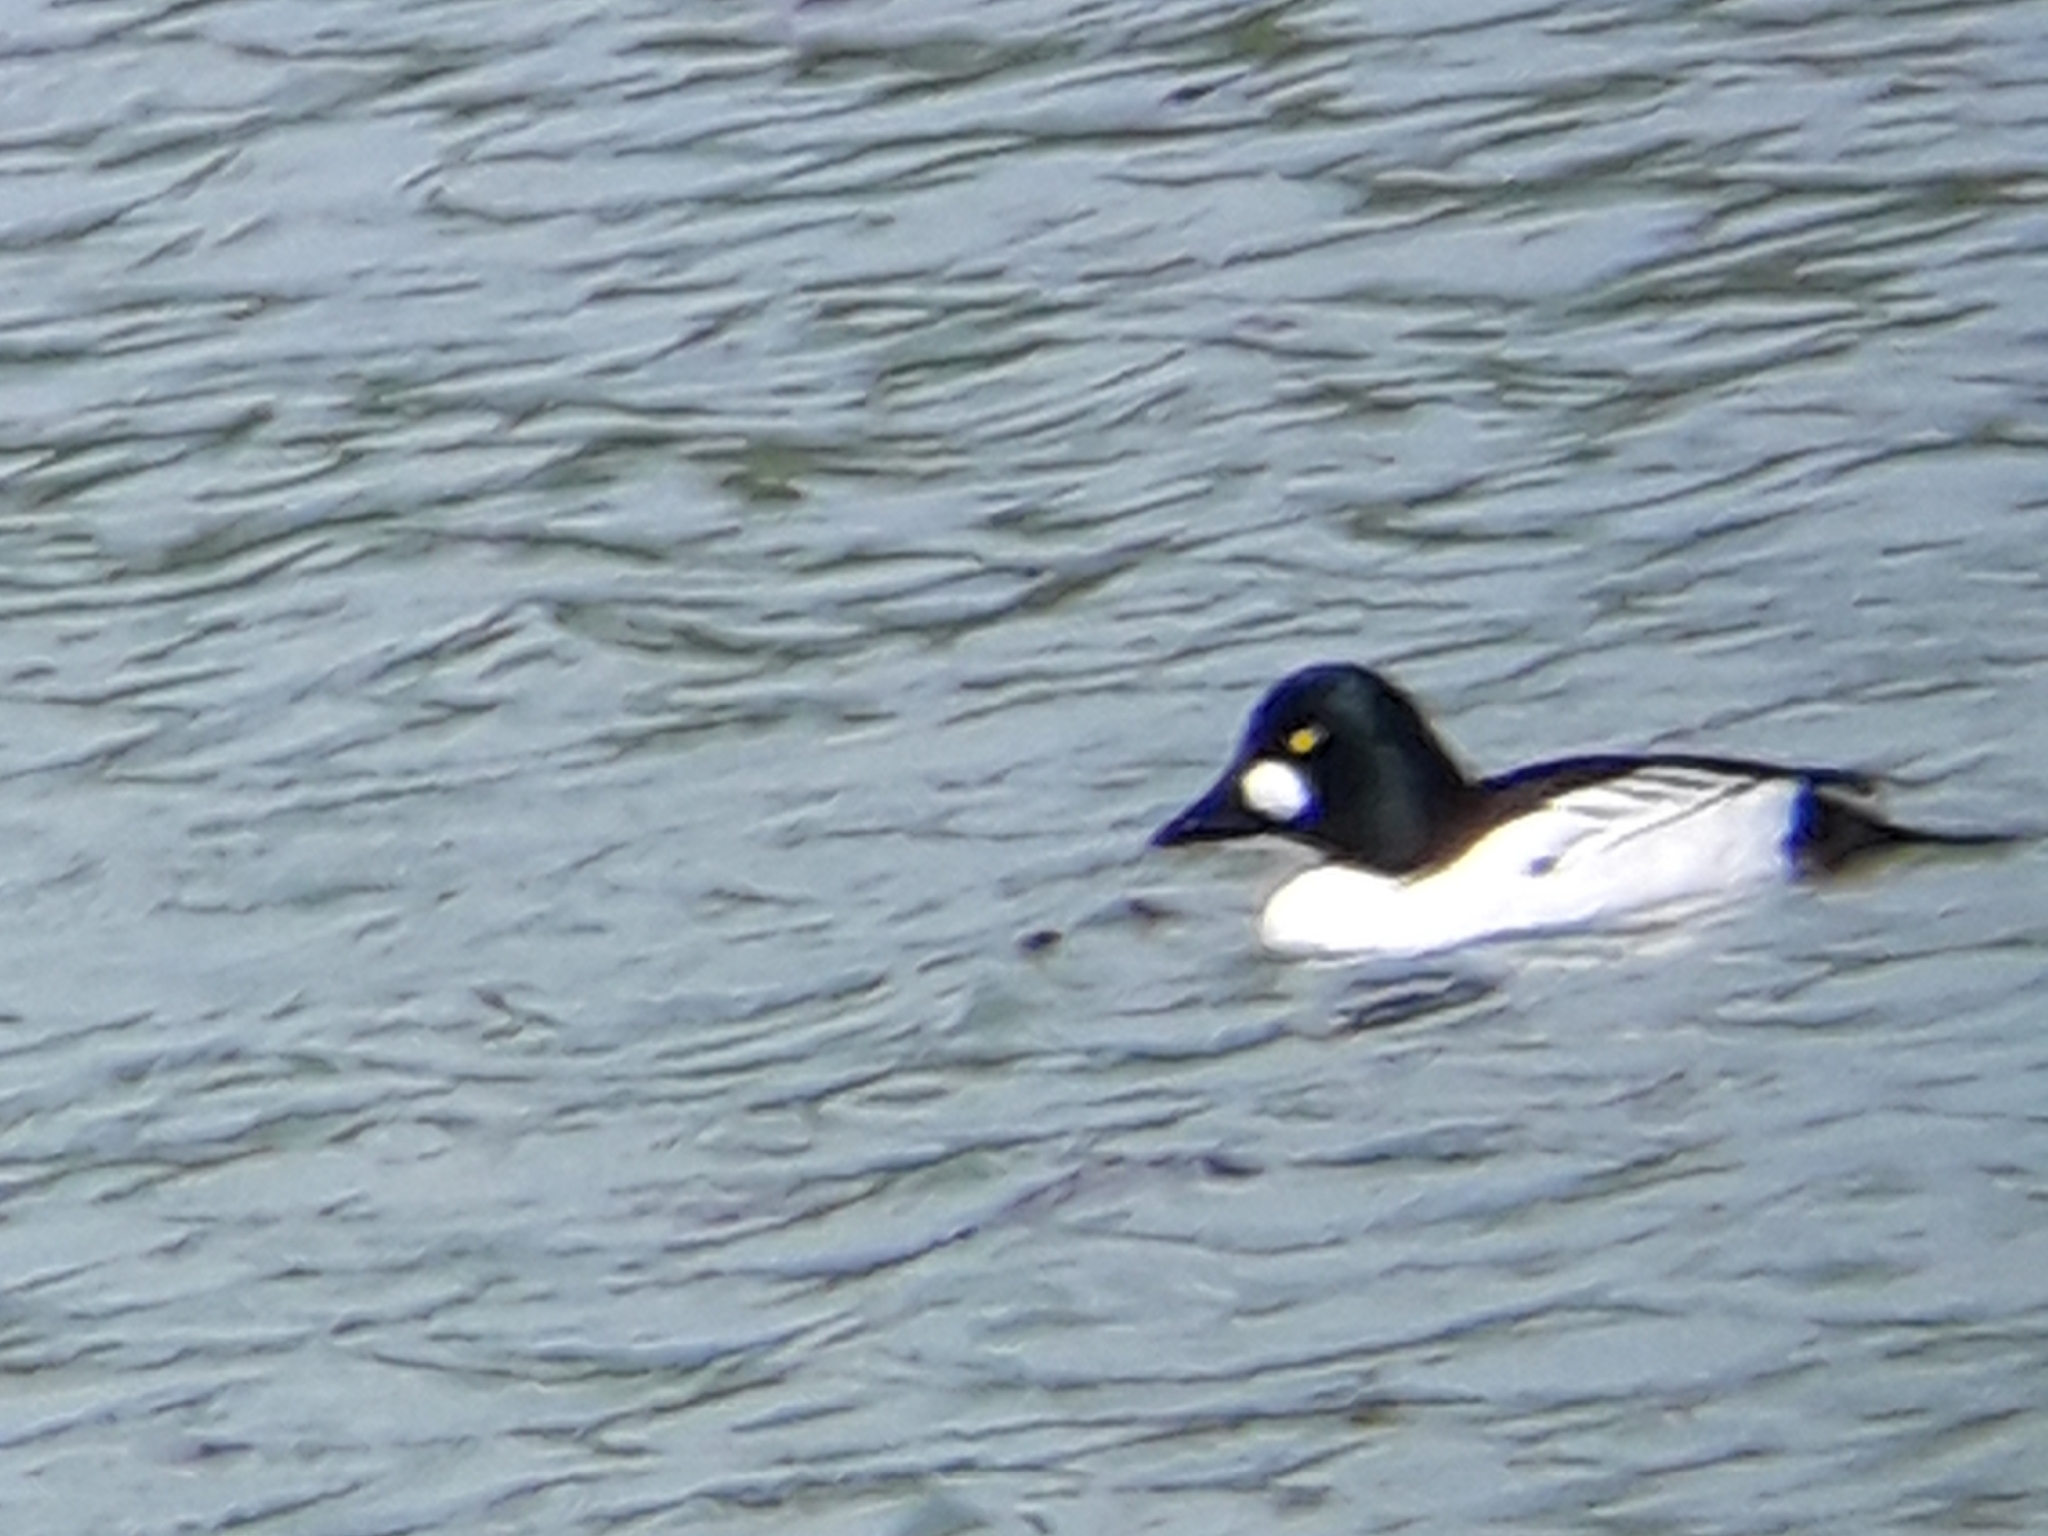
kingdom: Animalia
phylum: Chordata
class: Aves
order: Anseriformes
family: Anatidae
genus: Bucephala
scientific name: Bucephala clangula
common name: Common goldeneye
